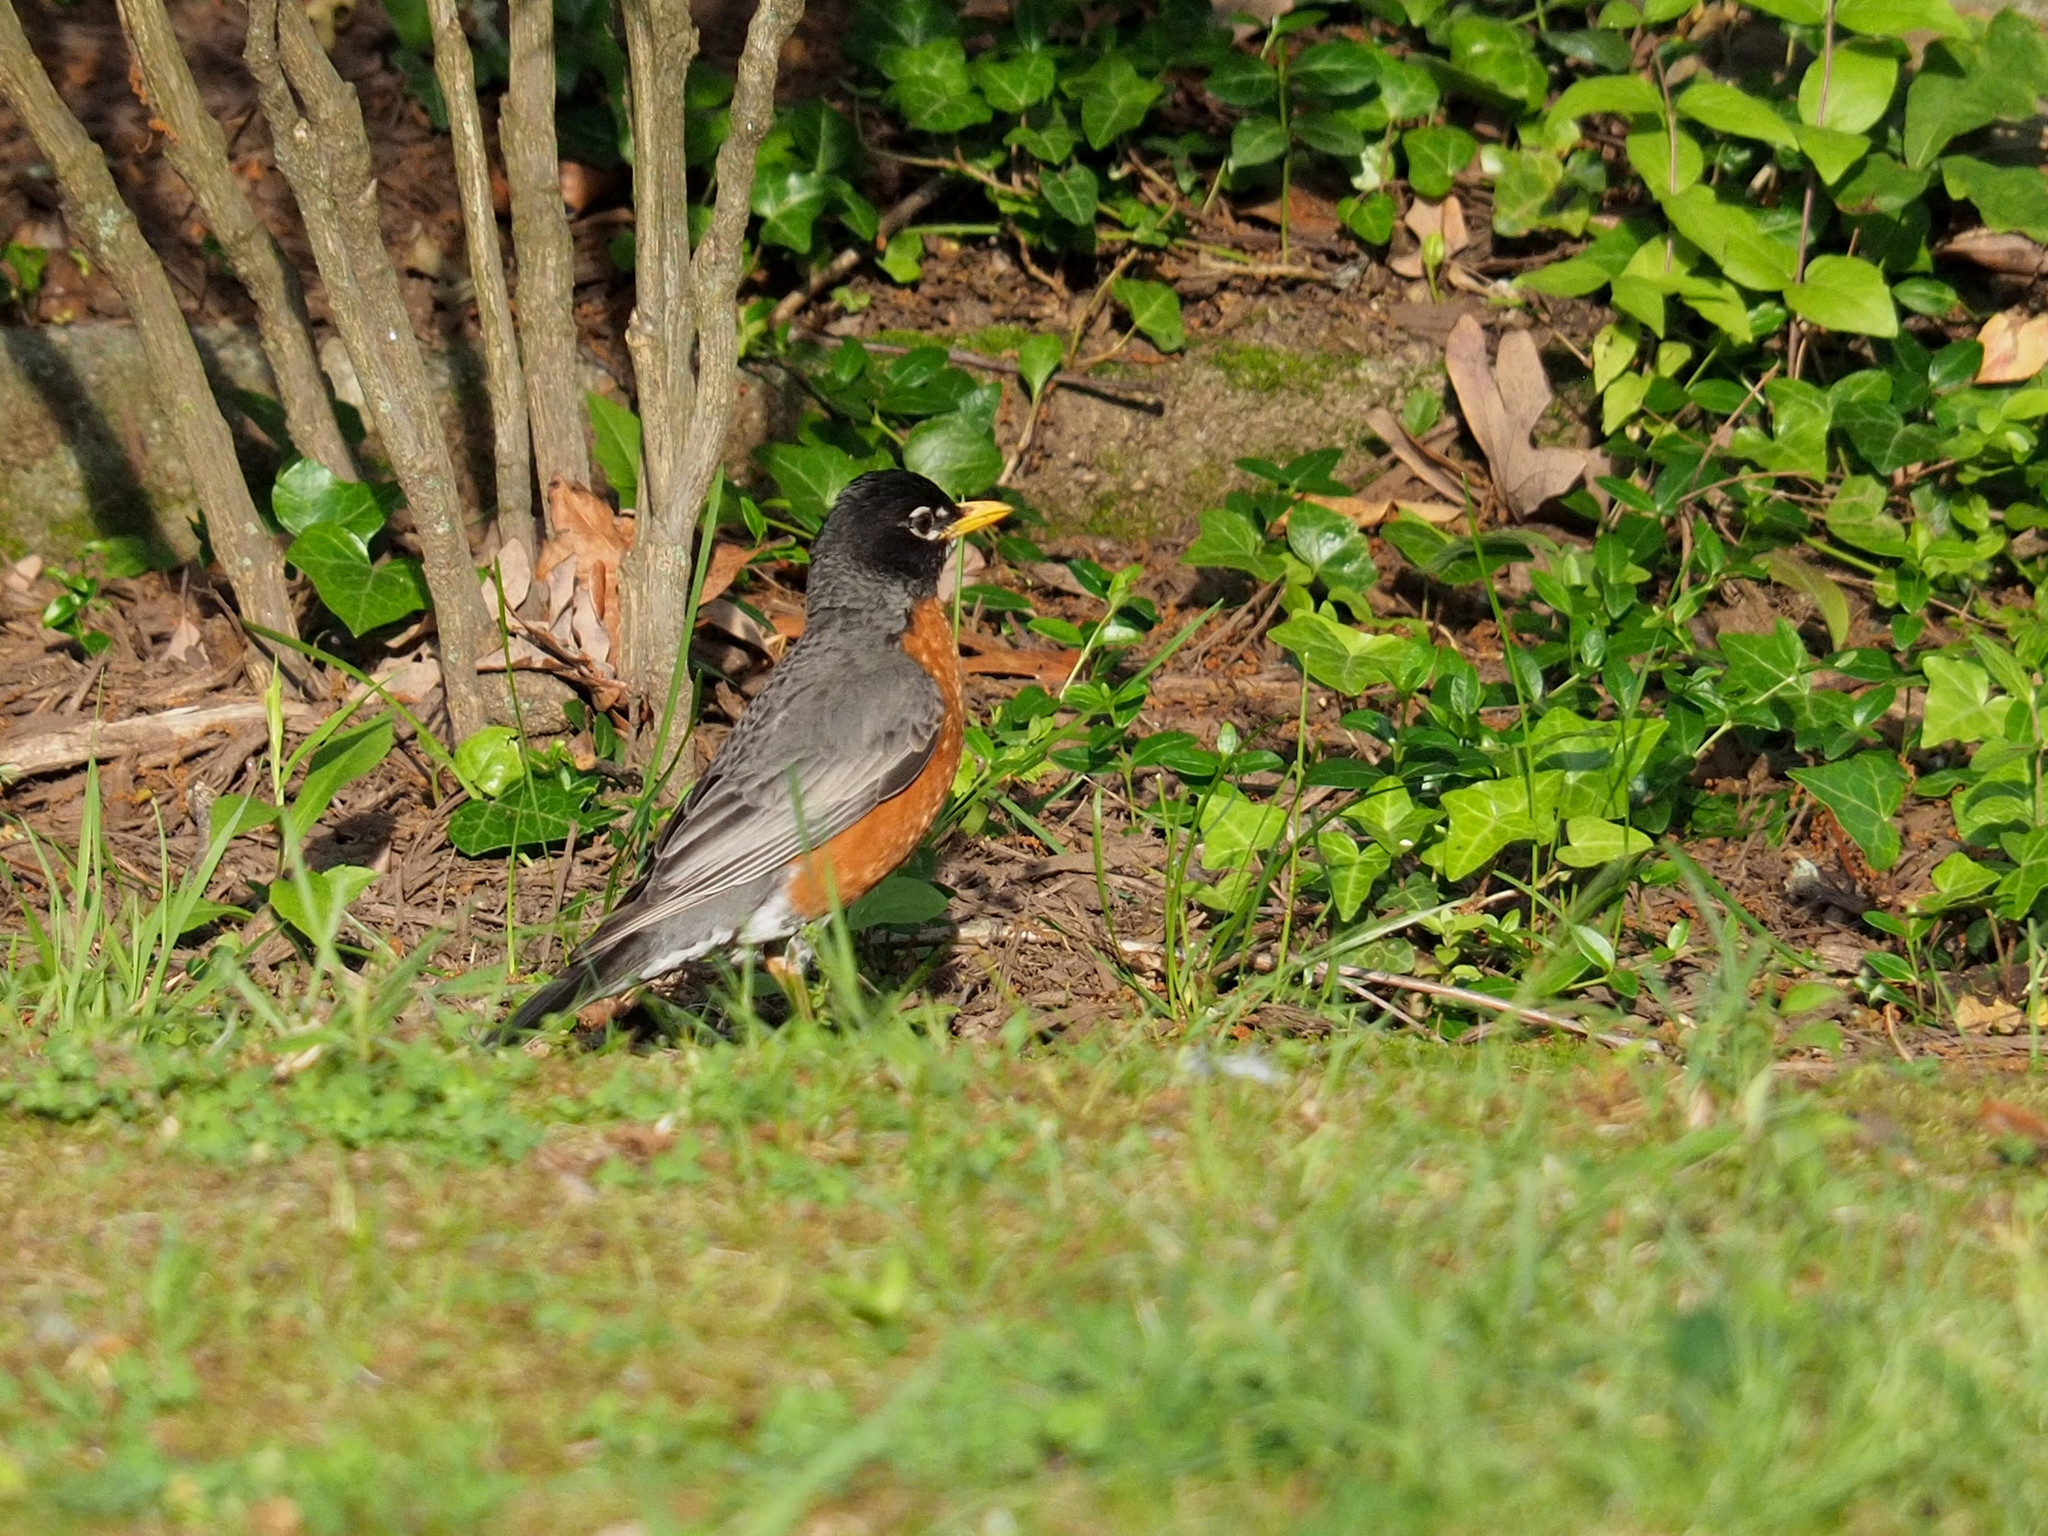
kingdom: Animalia
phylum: Chordata
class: Aves
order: Passeriformes
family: Turdidae
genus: Turdus
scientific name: Turdus migratorius
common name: American robin
